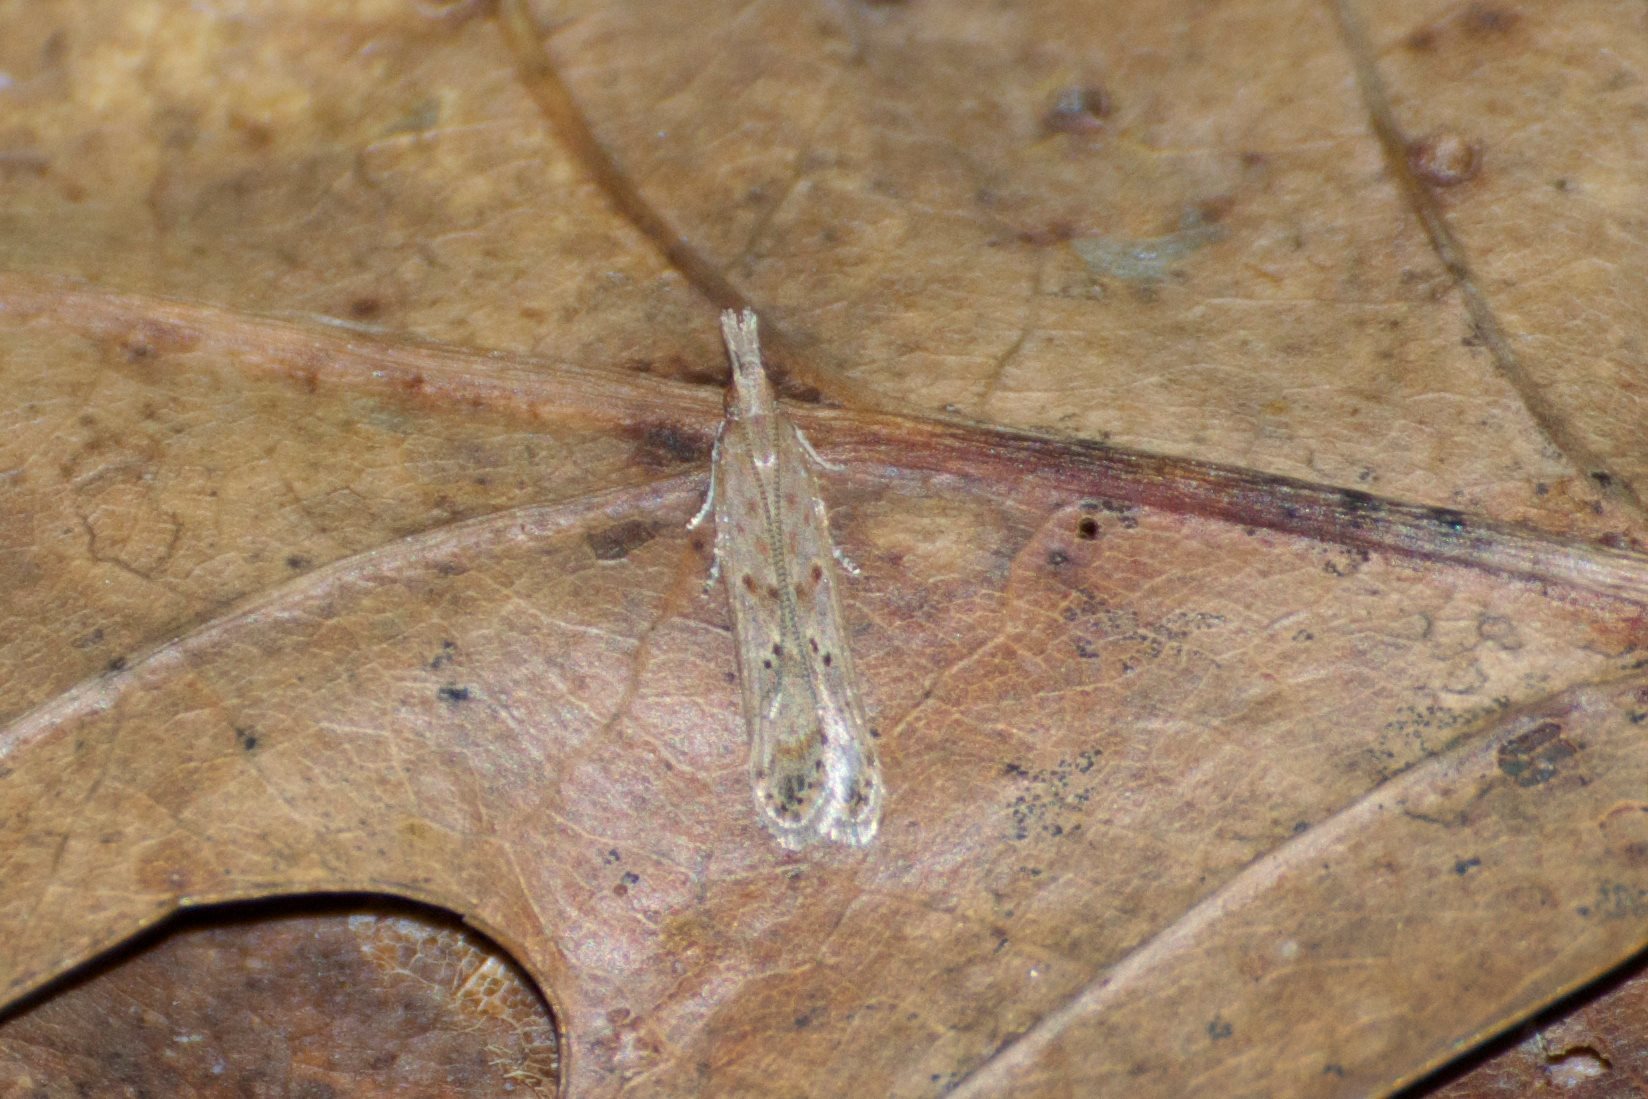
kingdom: Animalia
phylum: Arthropoda
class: Insecta
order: Lepidoptera
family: Gelechiidae
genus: Dichomeris
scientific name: Dichomeris ligulella
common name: Moth
